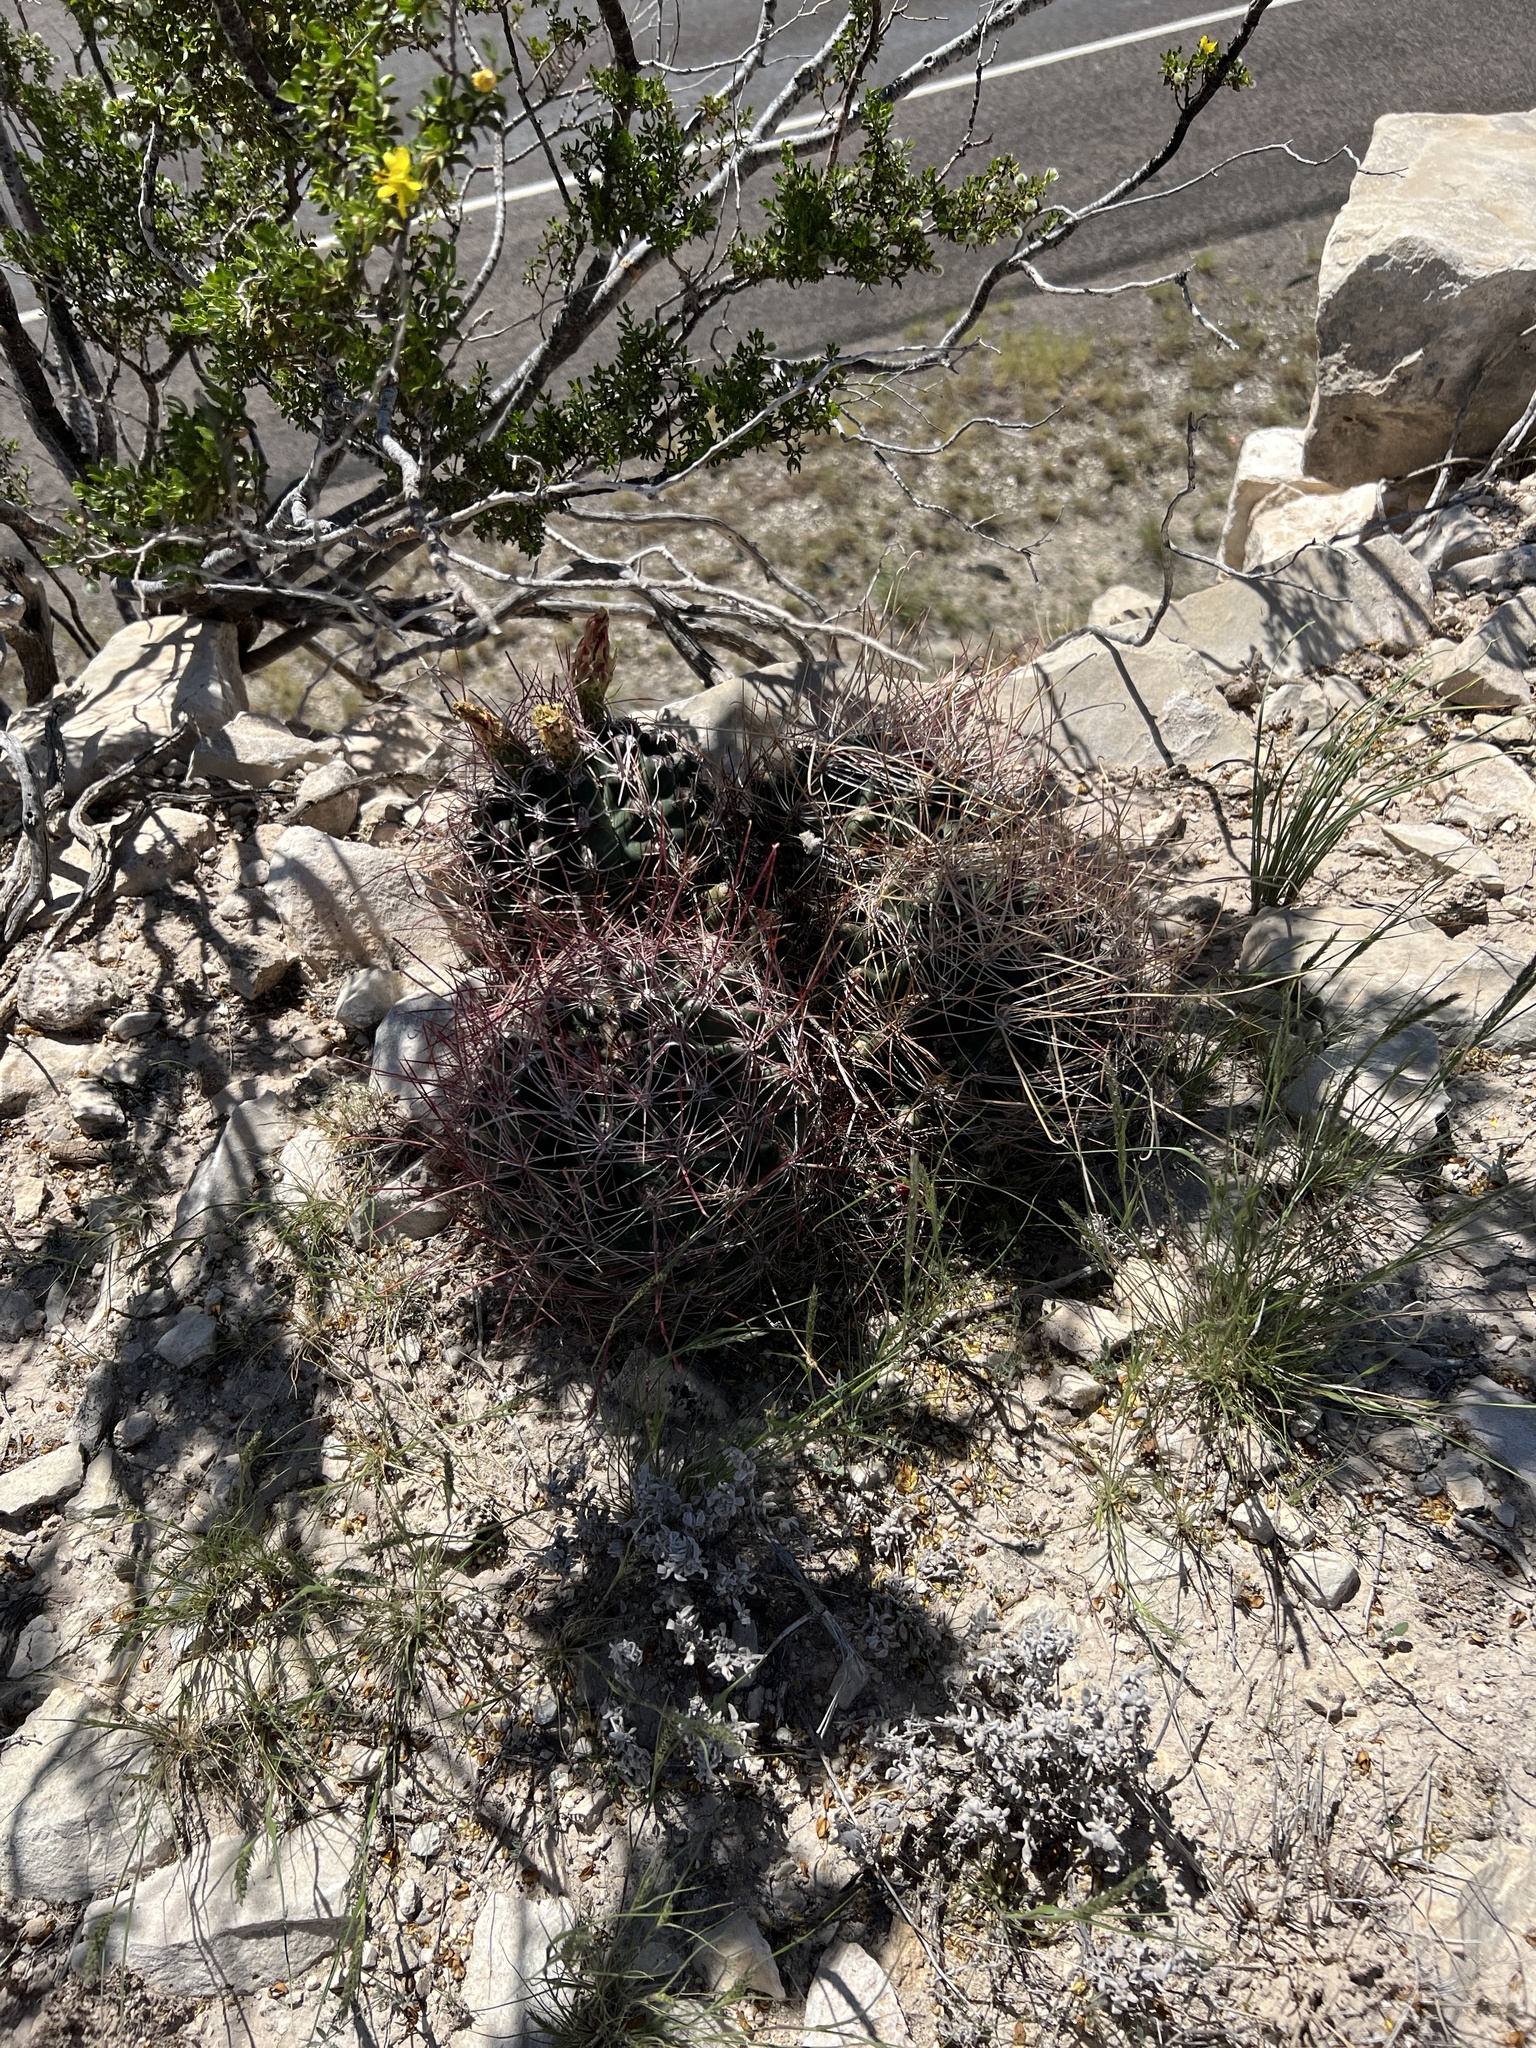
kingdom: Plantae
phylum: Tracheophyta
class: Magnoliopsida
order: Caryophyllales
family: Cactaceae
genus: Bisnaga
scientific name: Bisnaga hamatacantha
